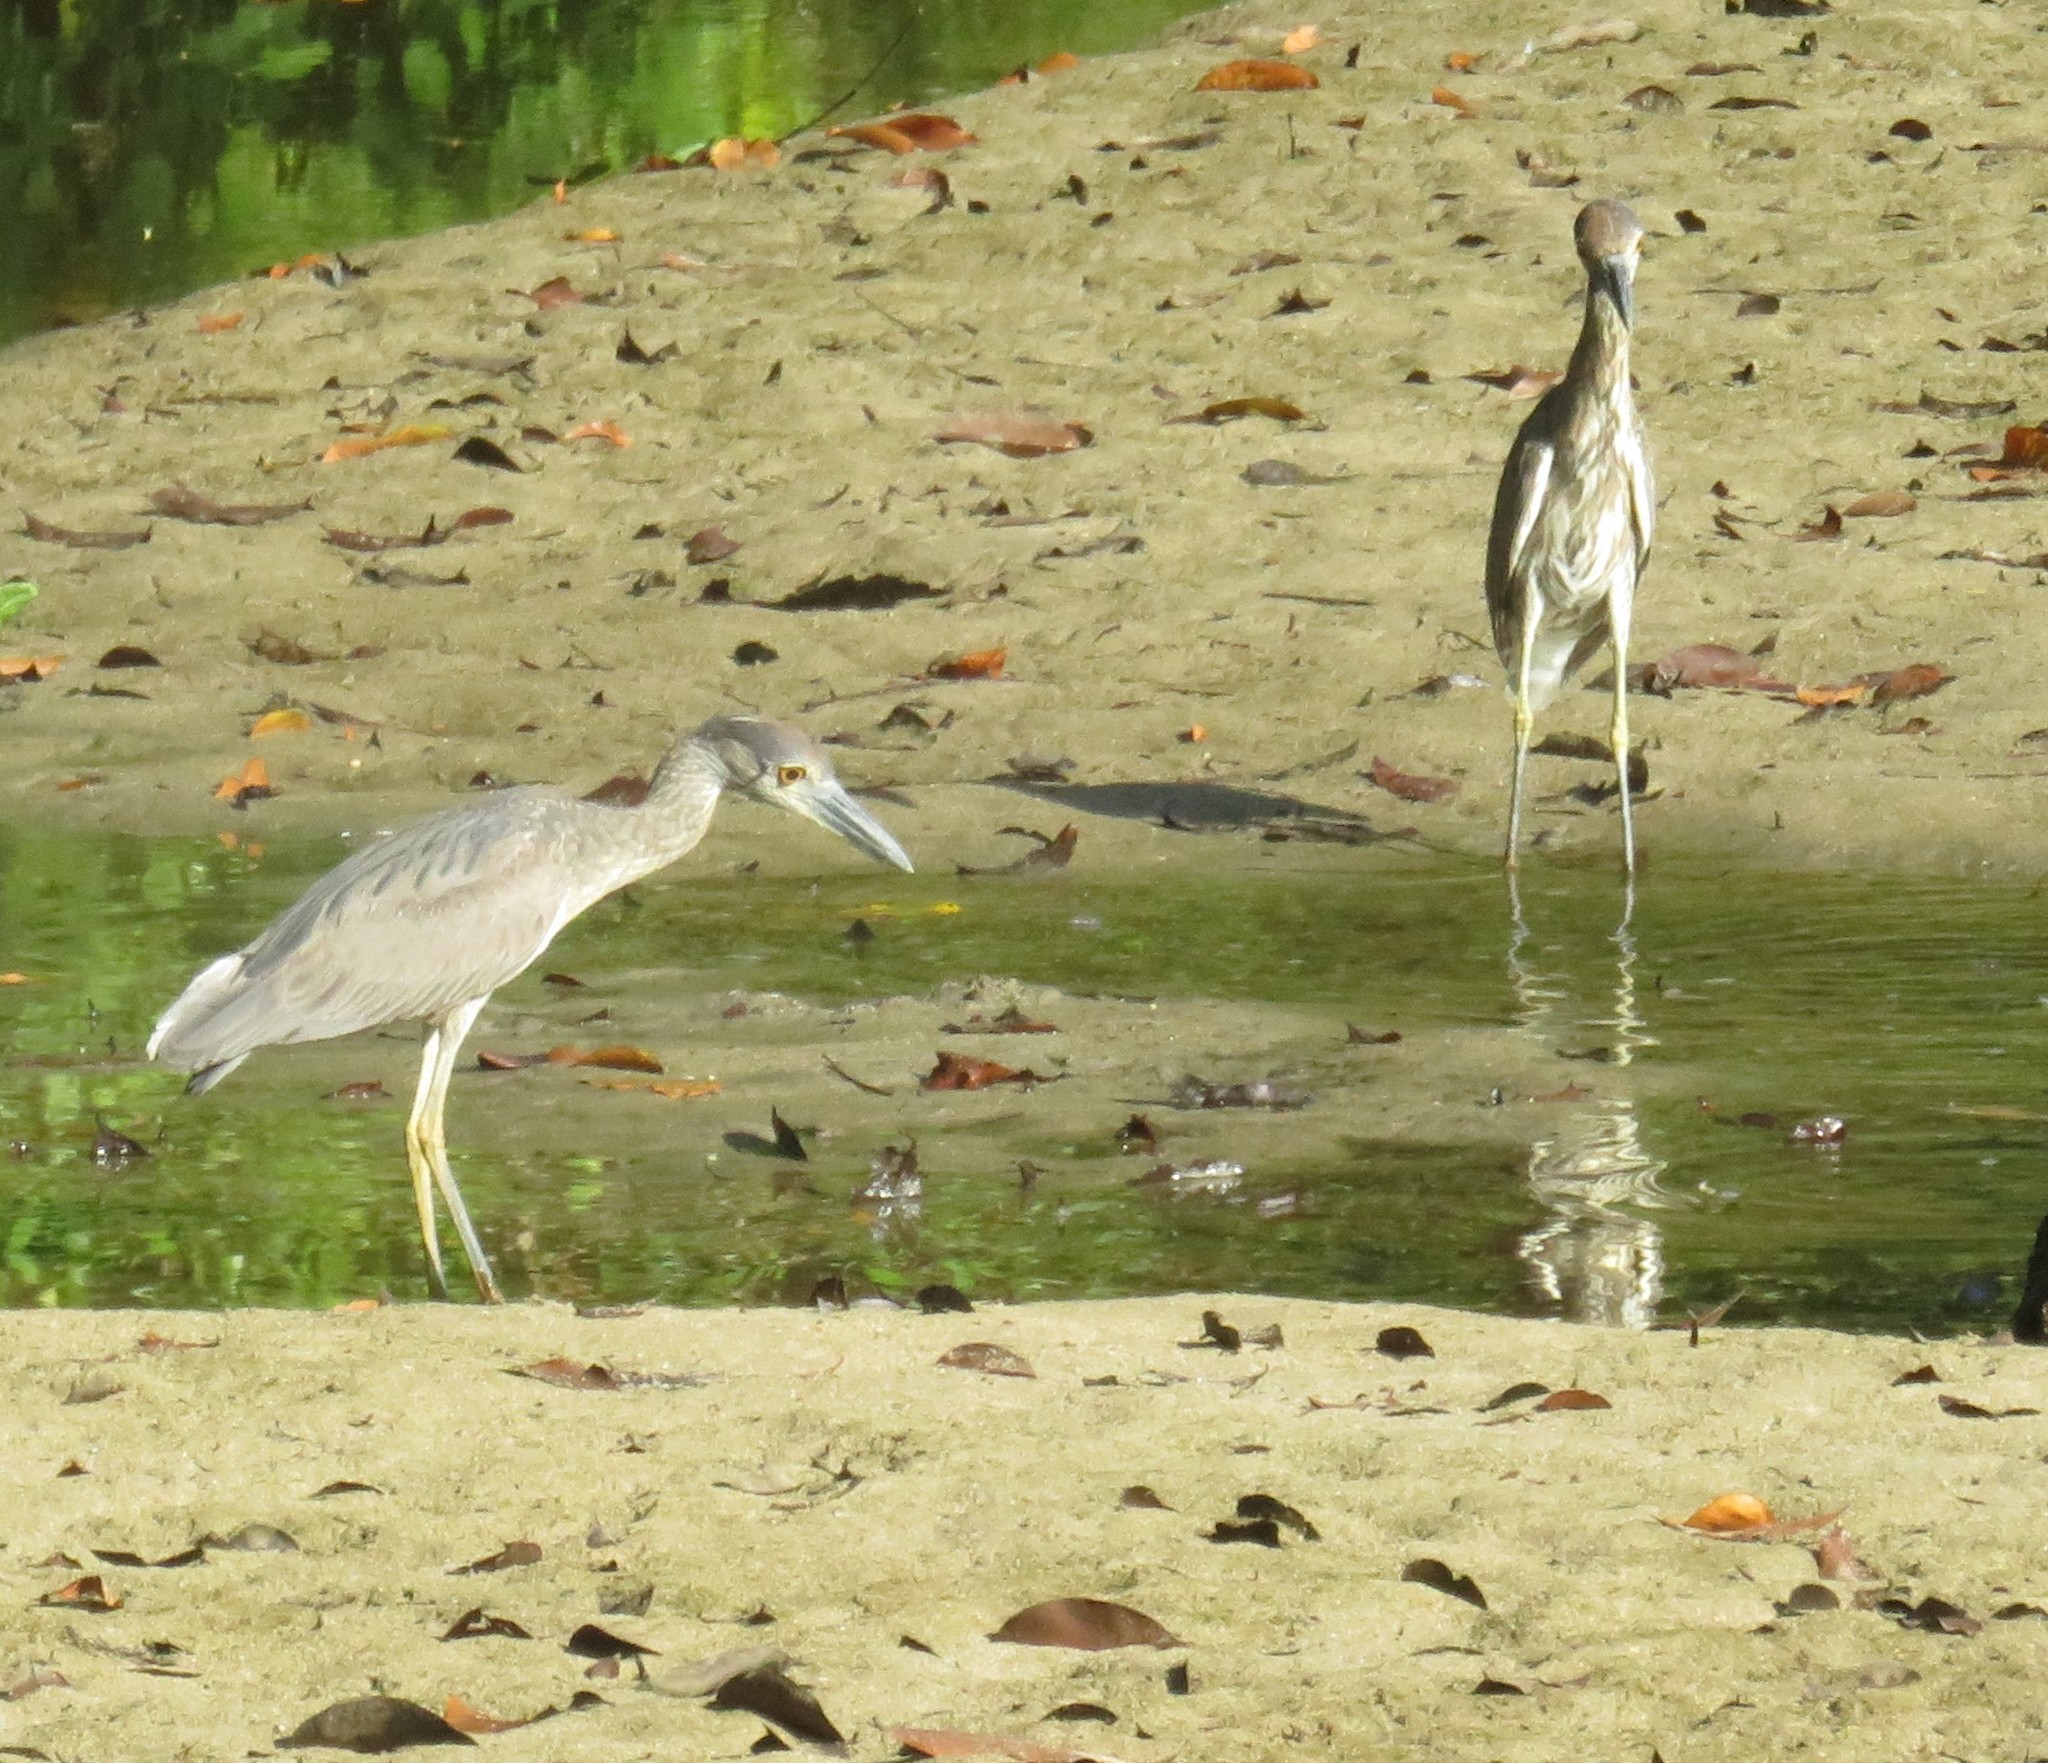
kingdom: Animalia
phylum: Chordata
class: Aves
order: Pelecaniformes
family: Ardeidae
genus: Nyctanassa
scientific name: Nyctanassa violacea
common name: Yellow-crowned night heron
